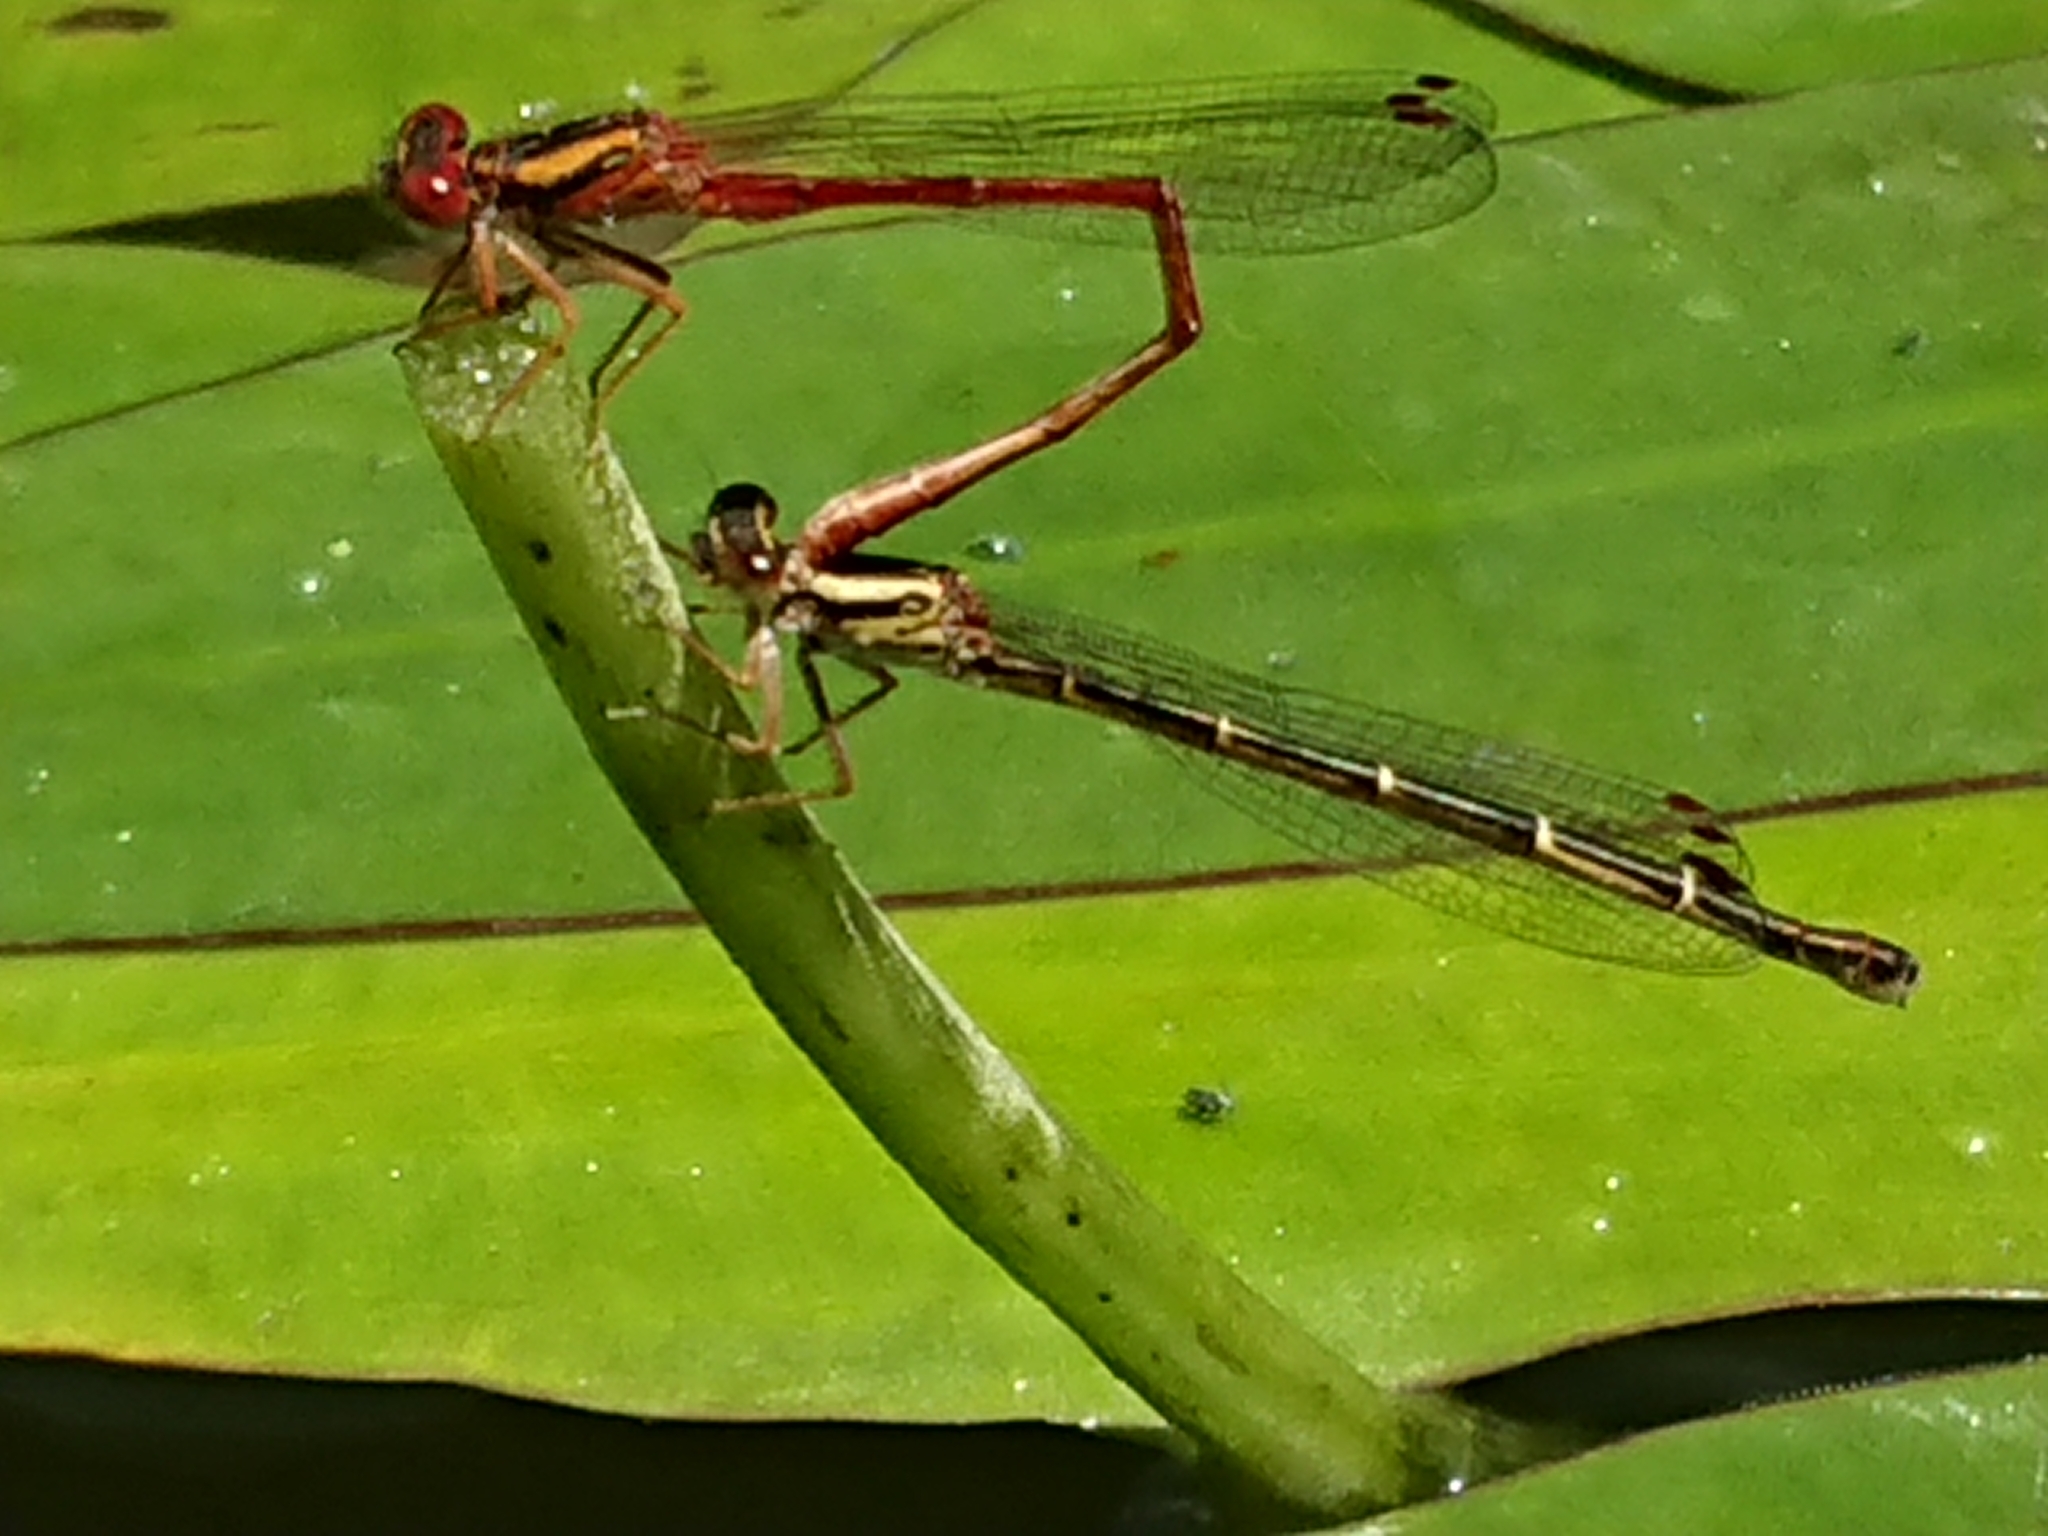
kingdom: Animalia
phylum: Arthropoda
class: Insecta
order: Odonata
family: Coenagrionidae
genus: Xanthocnemis
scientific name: Xanthocnemis zealandica
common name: Common redcoat damselfly
